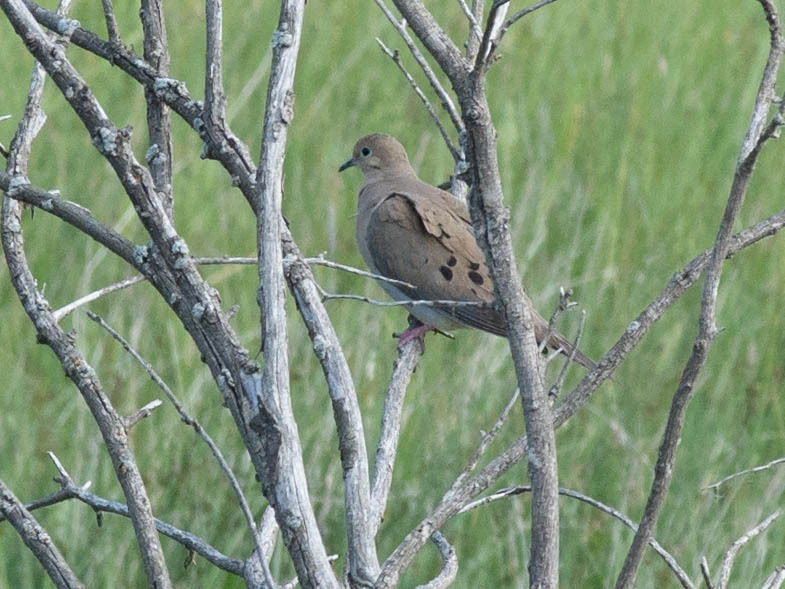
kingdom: Animalia
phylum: Chordata
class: Aves
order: Columbiformes
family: Columbidae
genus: Zenaida
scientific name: Zenaida macroura
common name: Mourning dove
